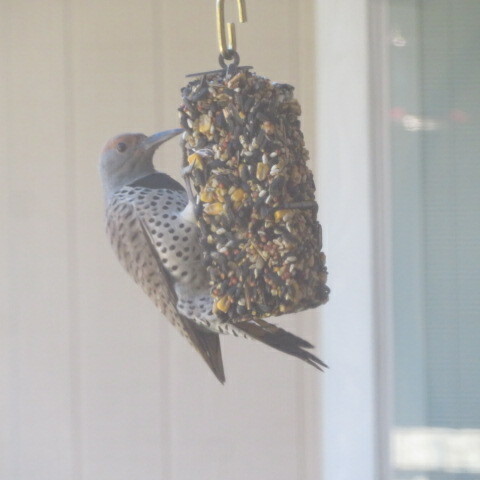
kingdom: Animalia
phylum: Chordata
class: Aves
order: Piciformes
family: Picidae
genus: Colaptes
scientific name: Colaptes chrysoides
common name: Gilded flicker
